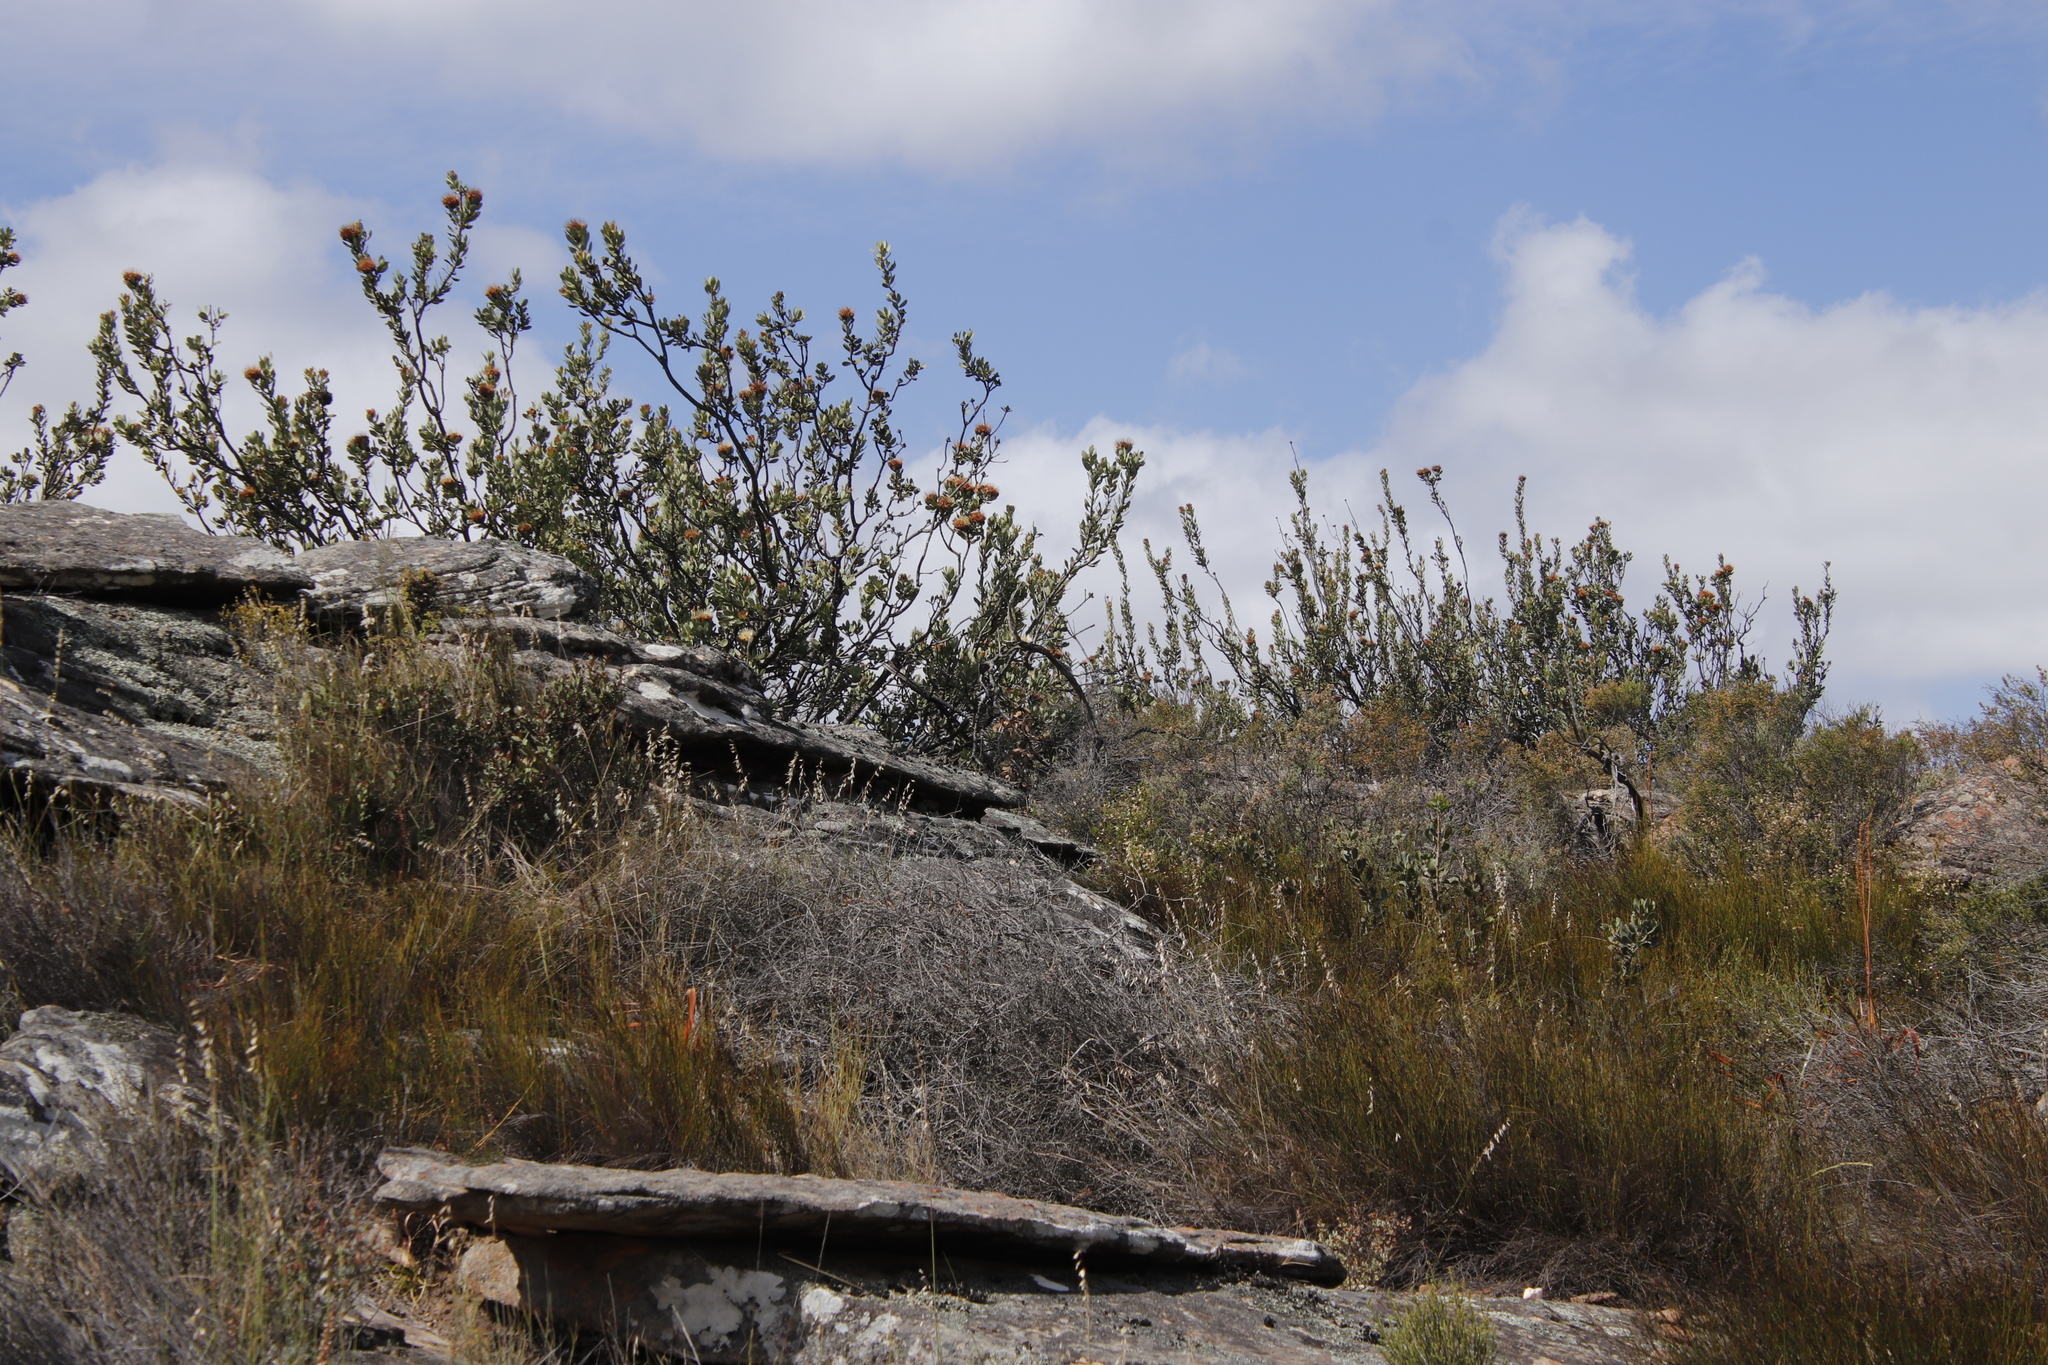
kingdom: Plantae
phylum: Tracheophyta
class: Magnoliopsida
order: Proteales
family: Proteaceae
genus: Protea
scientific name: Protea glabra
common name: Chestnut sugarbush
